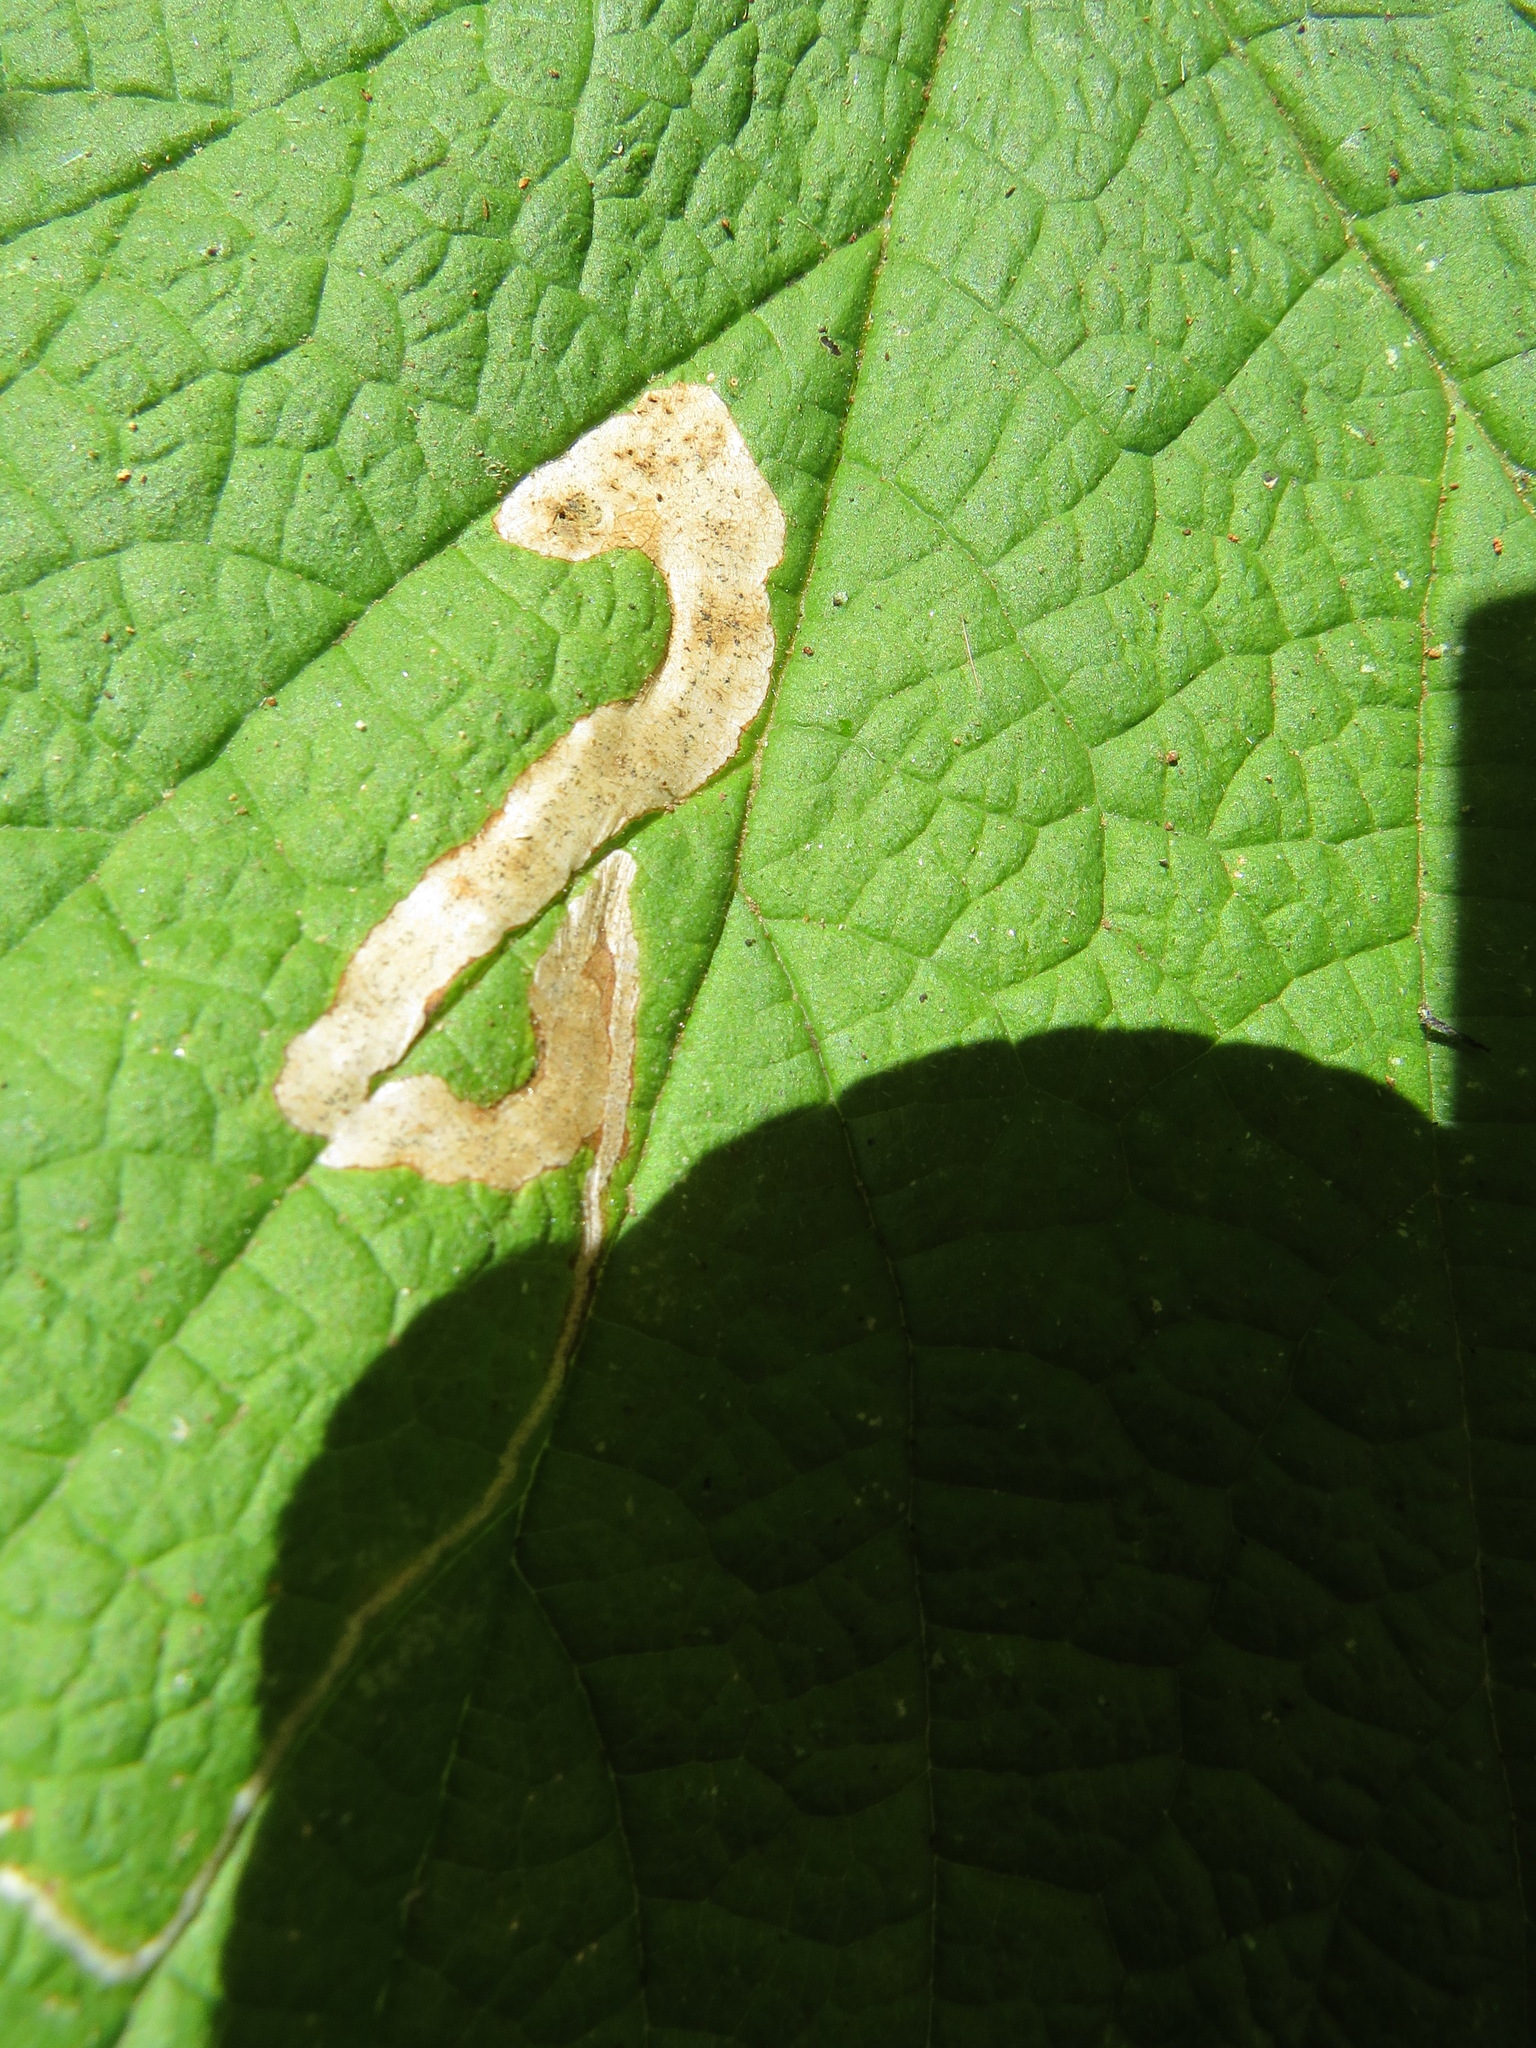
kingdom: Animalia
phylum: Arthropoda
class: Insecta
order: Diptera
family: Agromyzidae
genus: Agromyza
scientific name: Agromyza vockerothi
